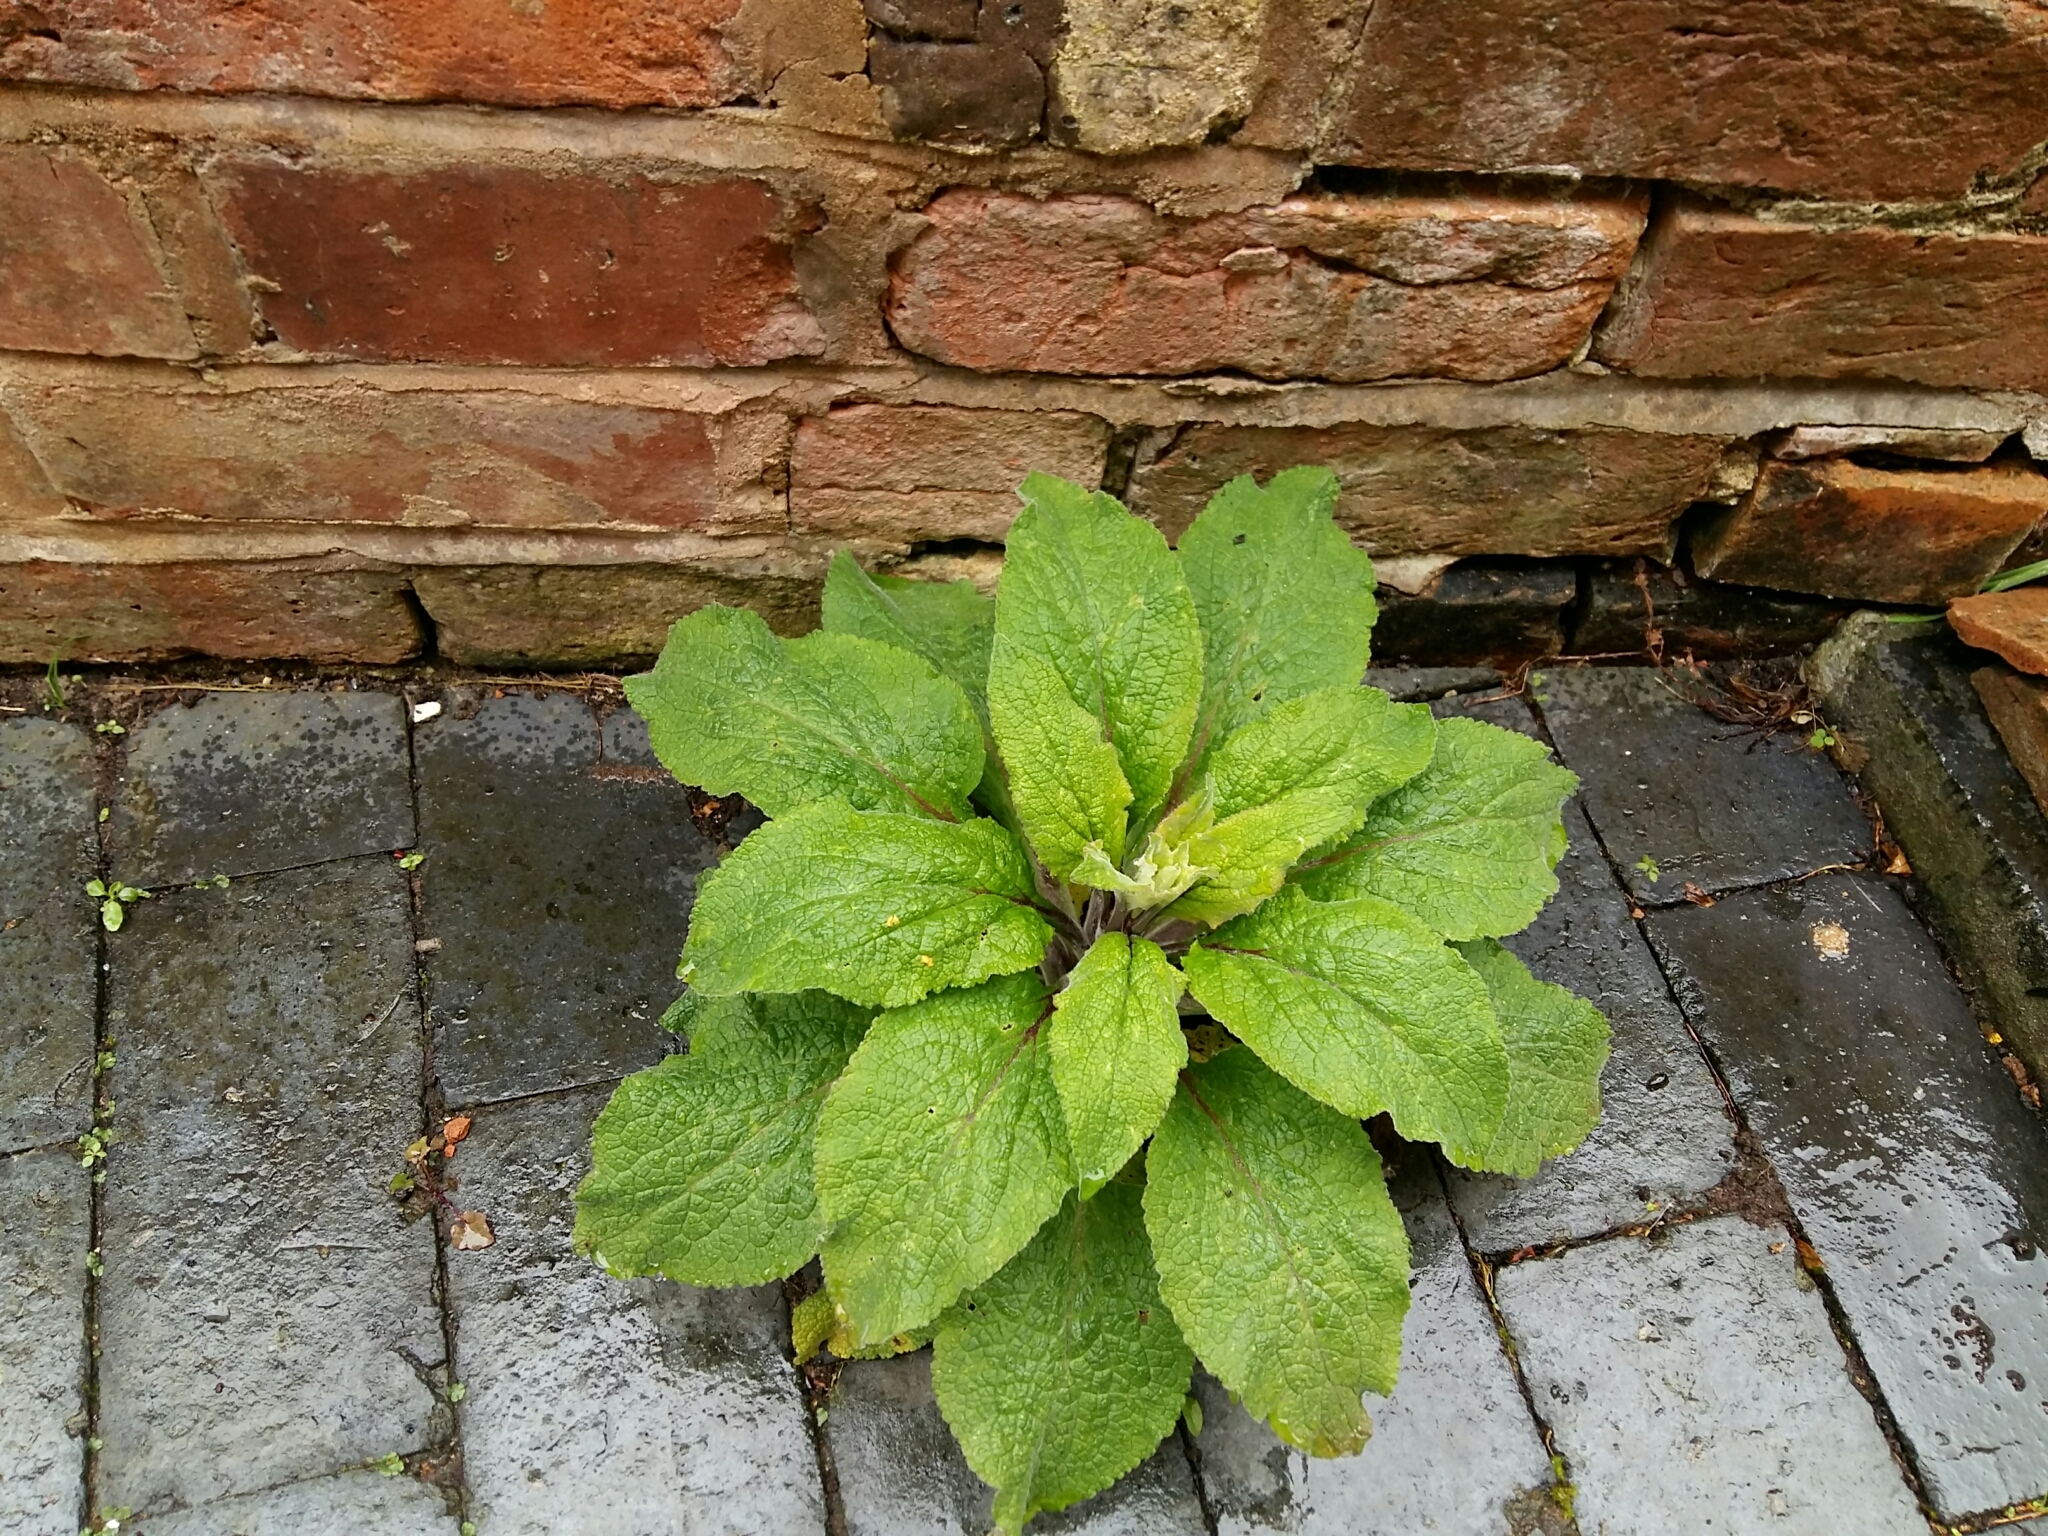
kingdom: Plantae
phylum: Tracheophyta
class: Magnoliopsida
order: Lamiales
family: Plantaginaceae
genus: Digitalis
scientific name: Digitalis purpurea
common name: Foxglove
